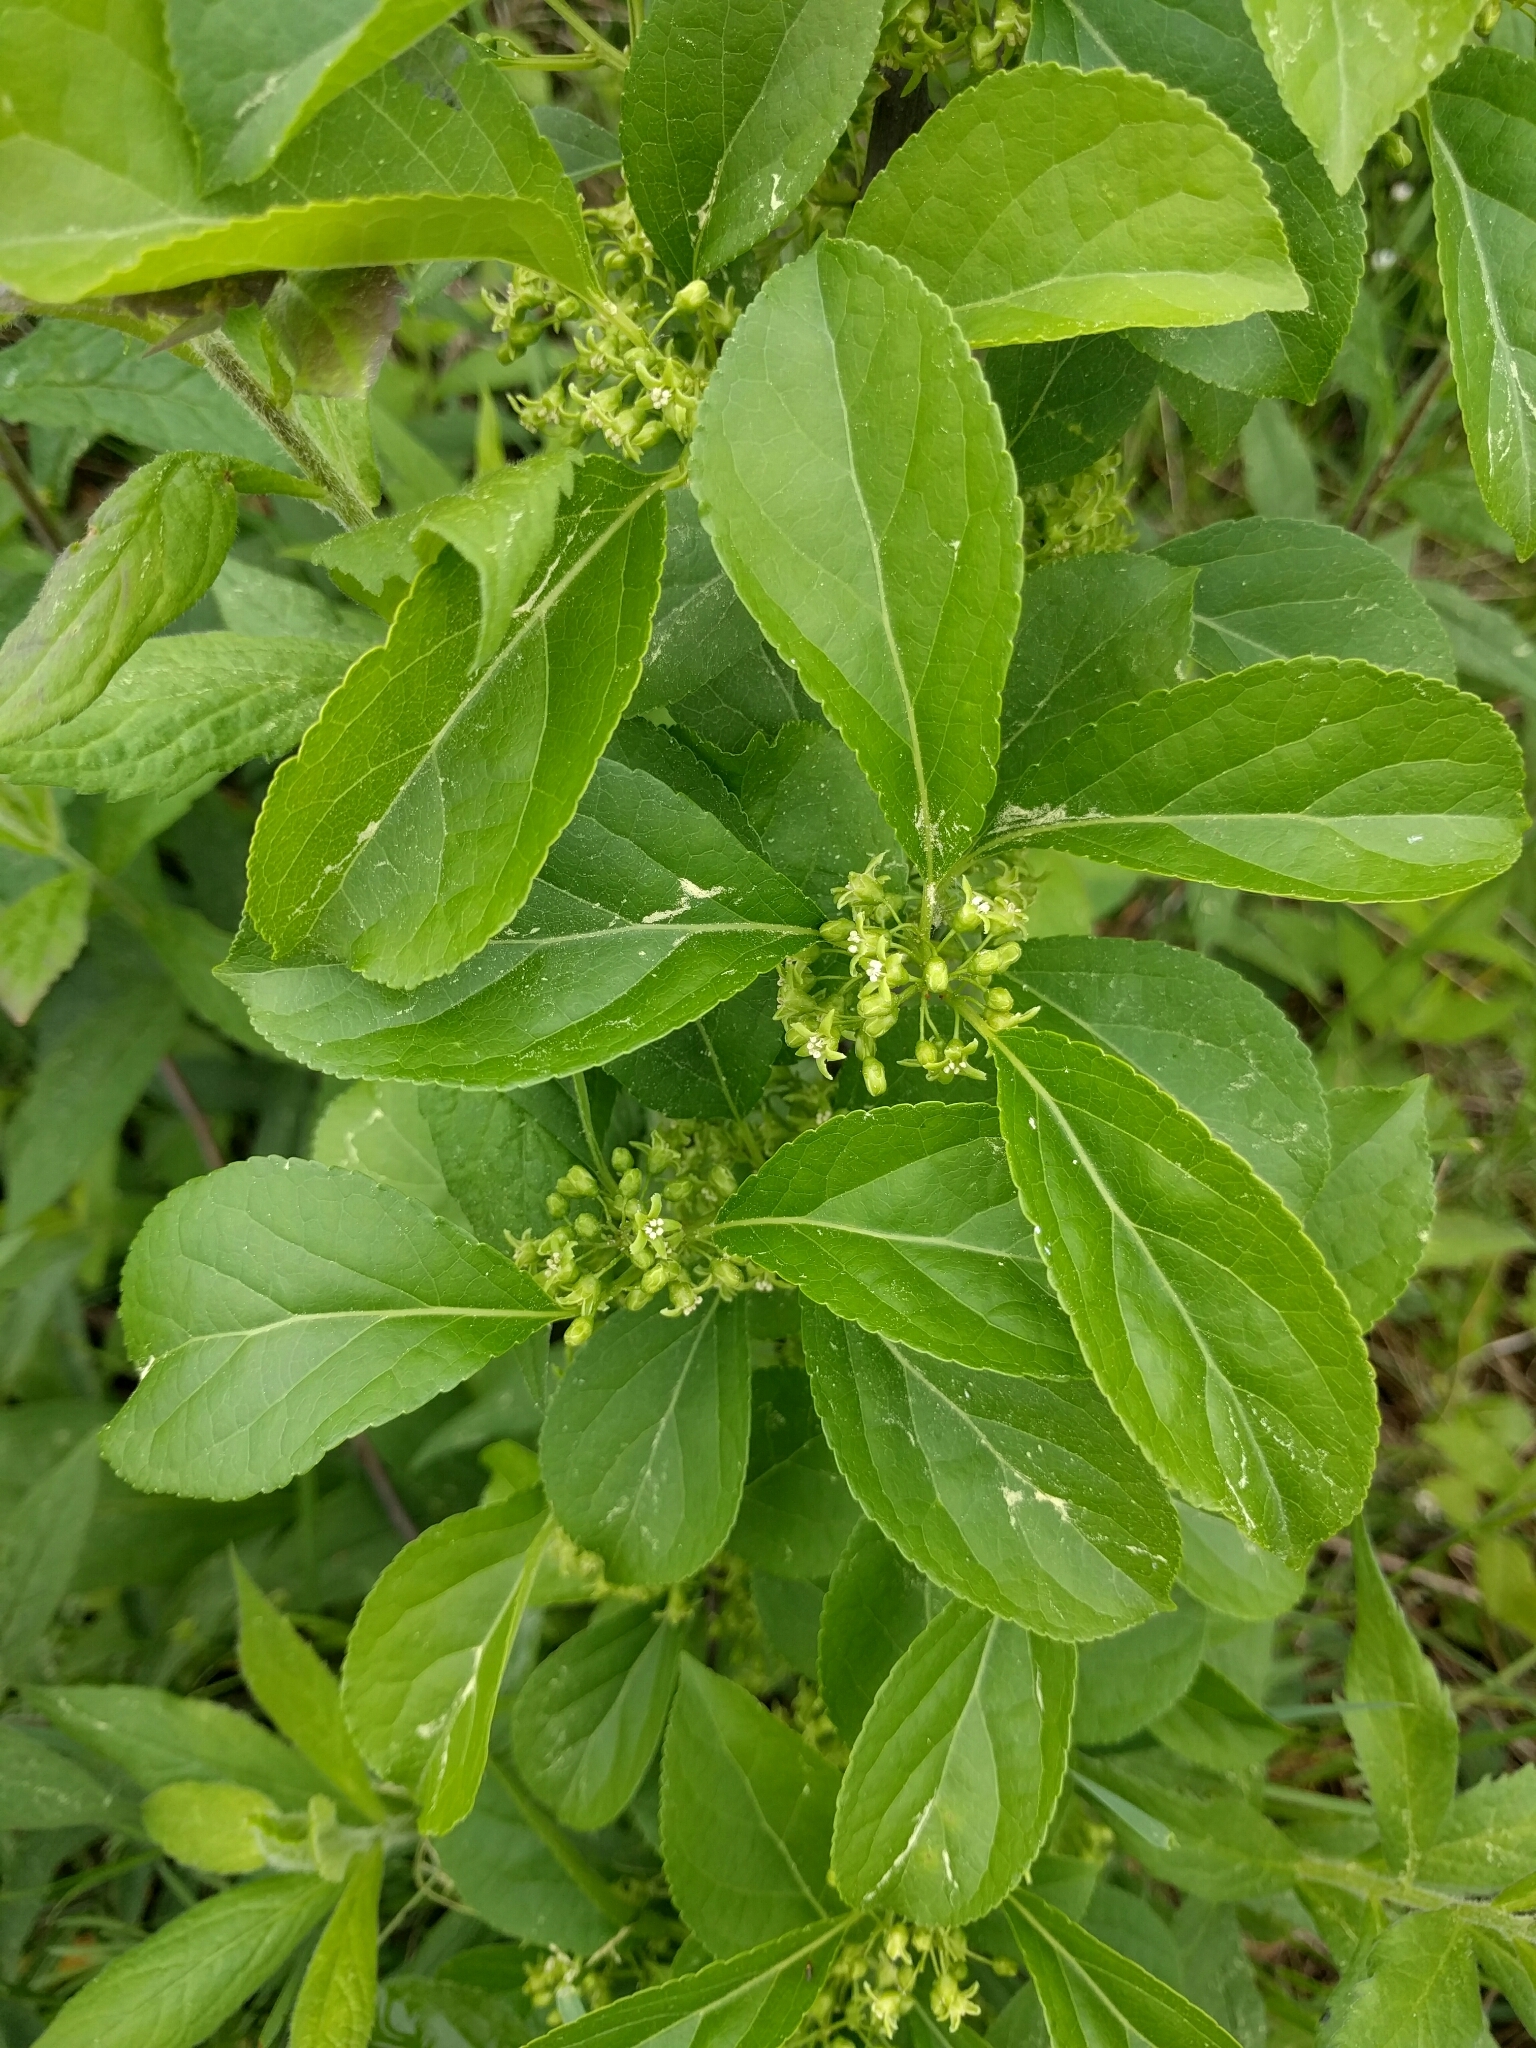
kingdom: Plantae
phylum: Tracheophyta
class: Magnoliopsida
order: Celastrales
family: Celastraceae
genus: Celastrus
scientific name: Celastrus orbiculatus
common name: Oriental bittersweet
